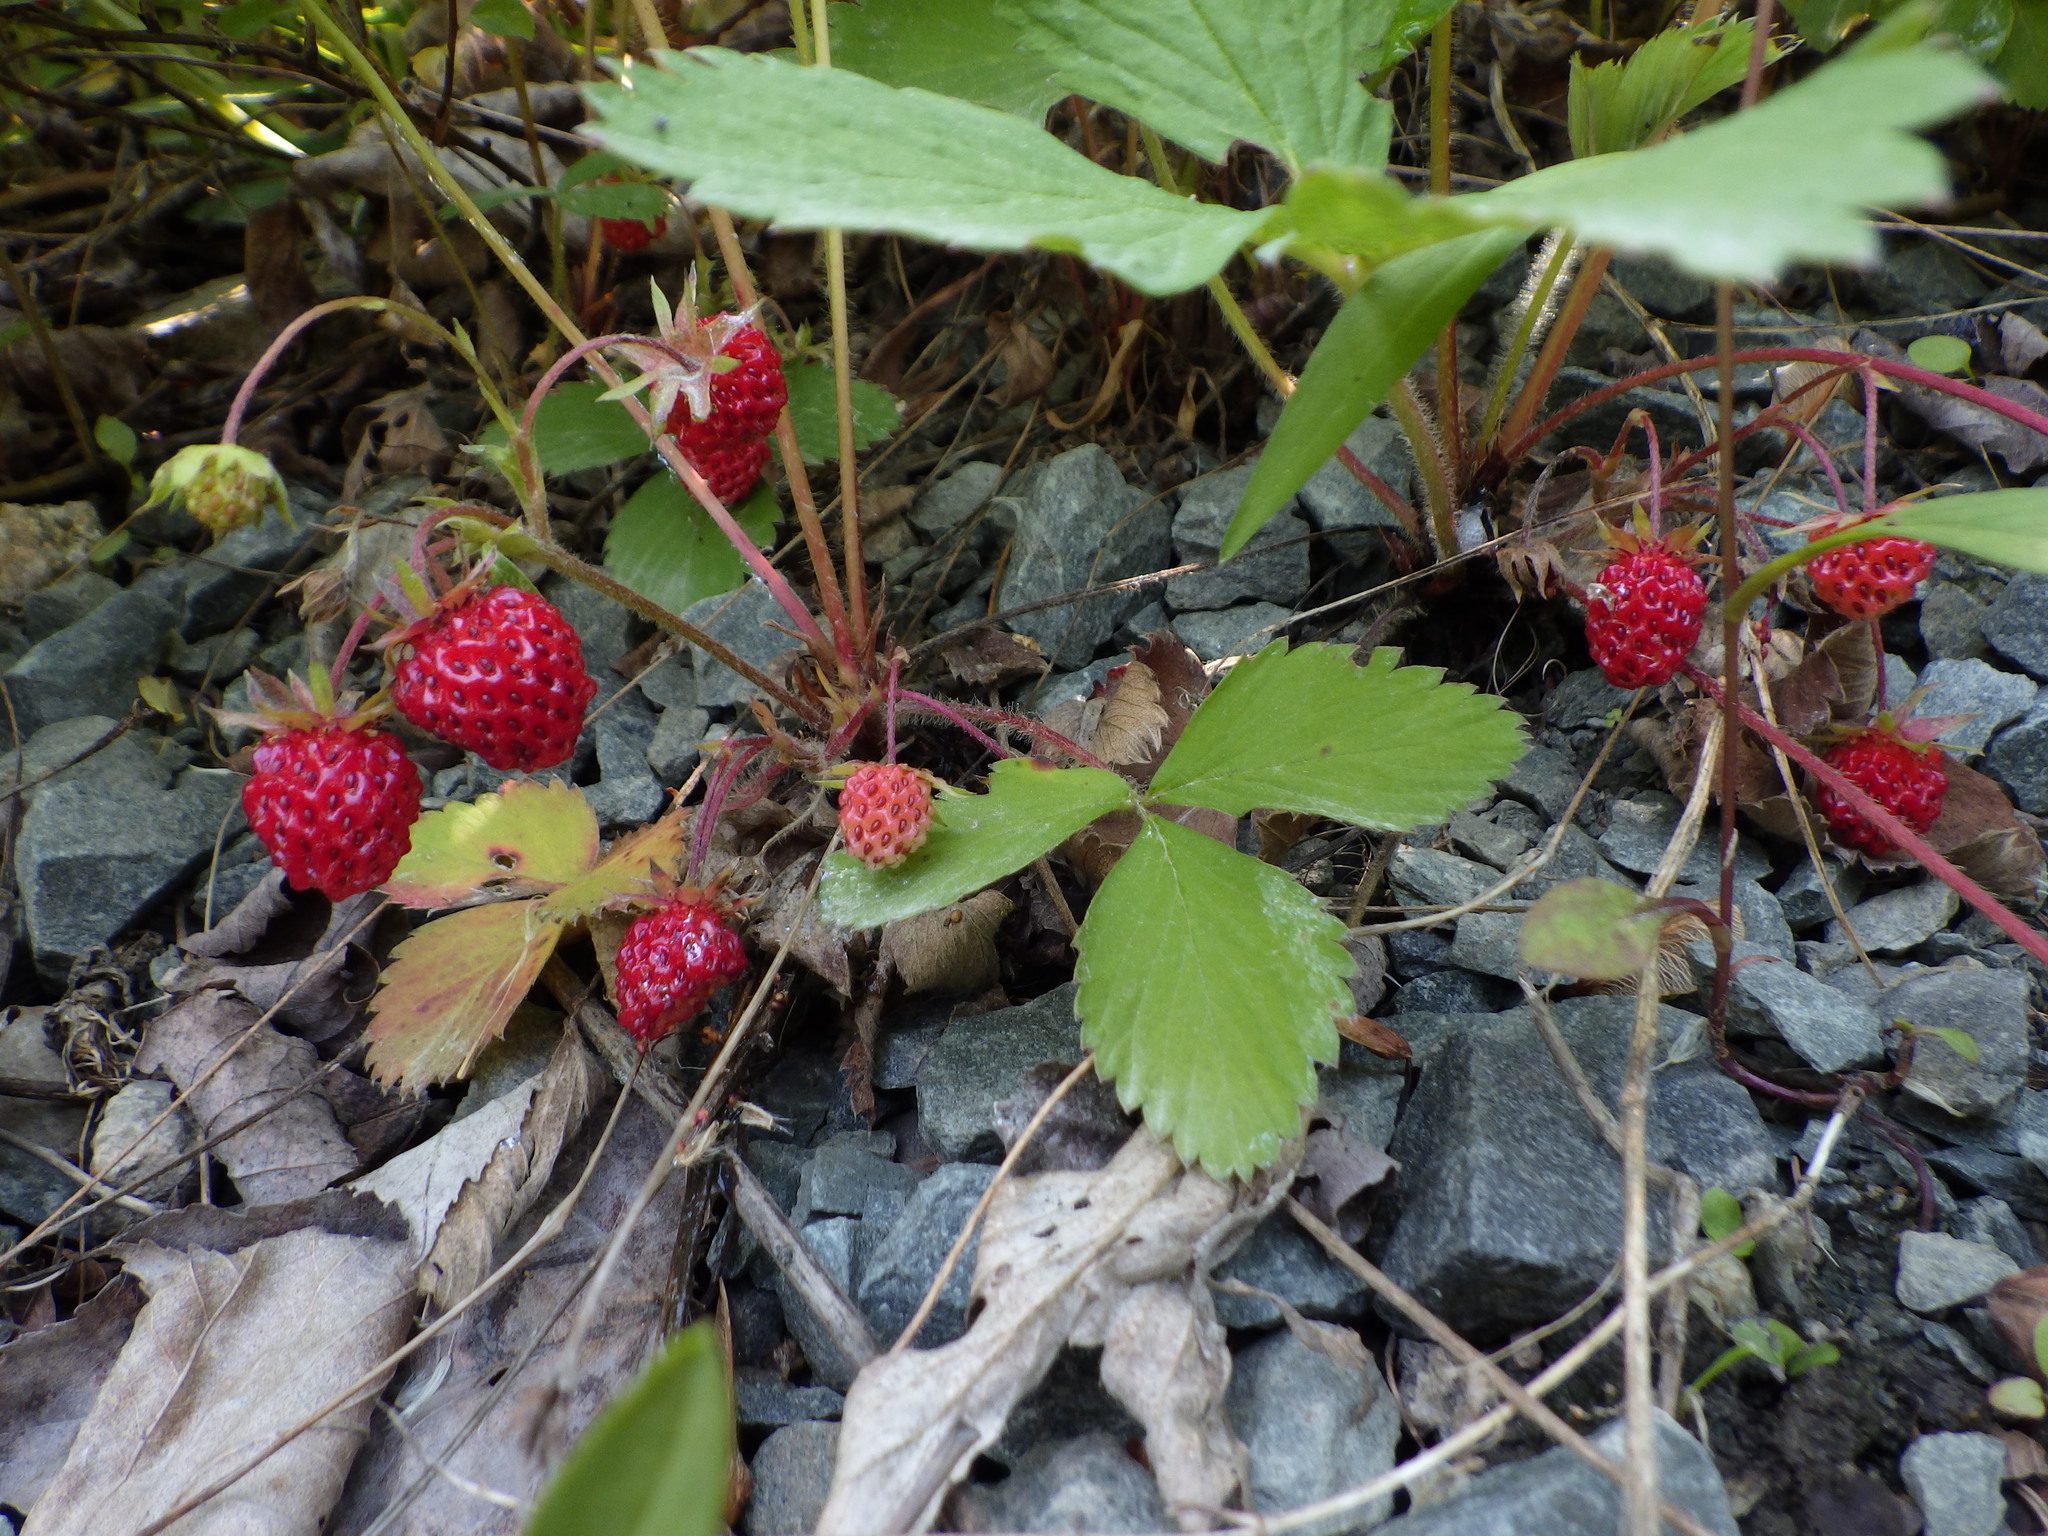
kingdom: Plantae
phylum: Tracheophyta
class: Magnoliopsida
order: Rosales
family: Rosaceae
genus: Fragaria
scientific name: Fragaria virginiana
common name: Thickleaved wild strawberry
